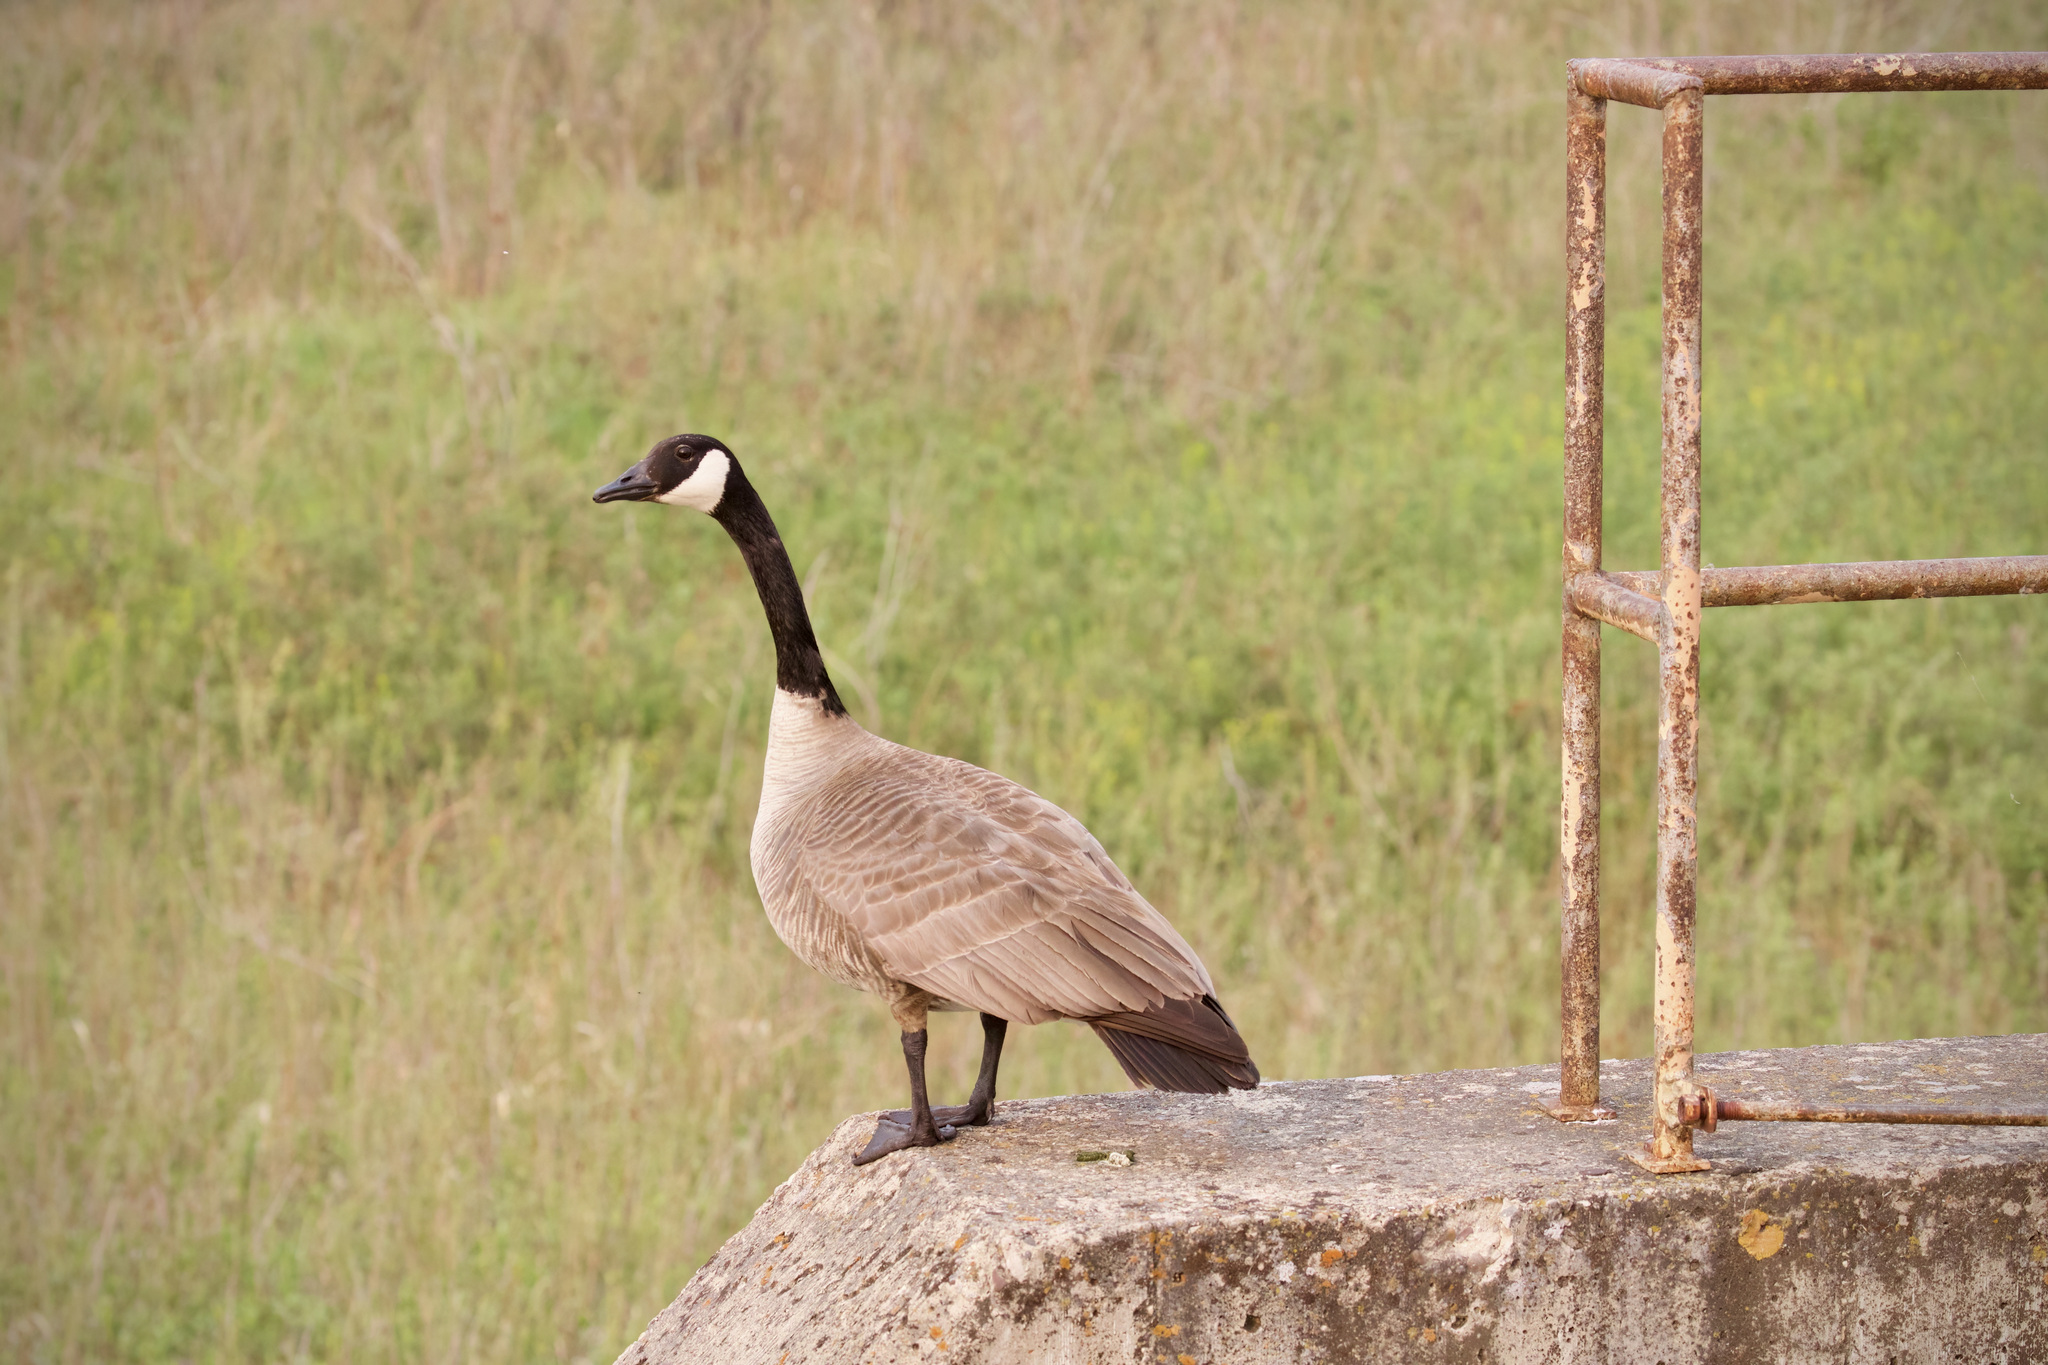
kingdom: Animalia
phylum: Chordata
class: Aves
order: Anseriformes
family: Anatidae
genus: Branta
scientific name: Branta canadensis
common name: Canada goose
